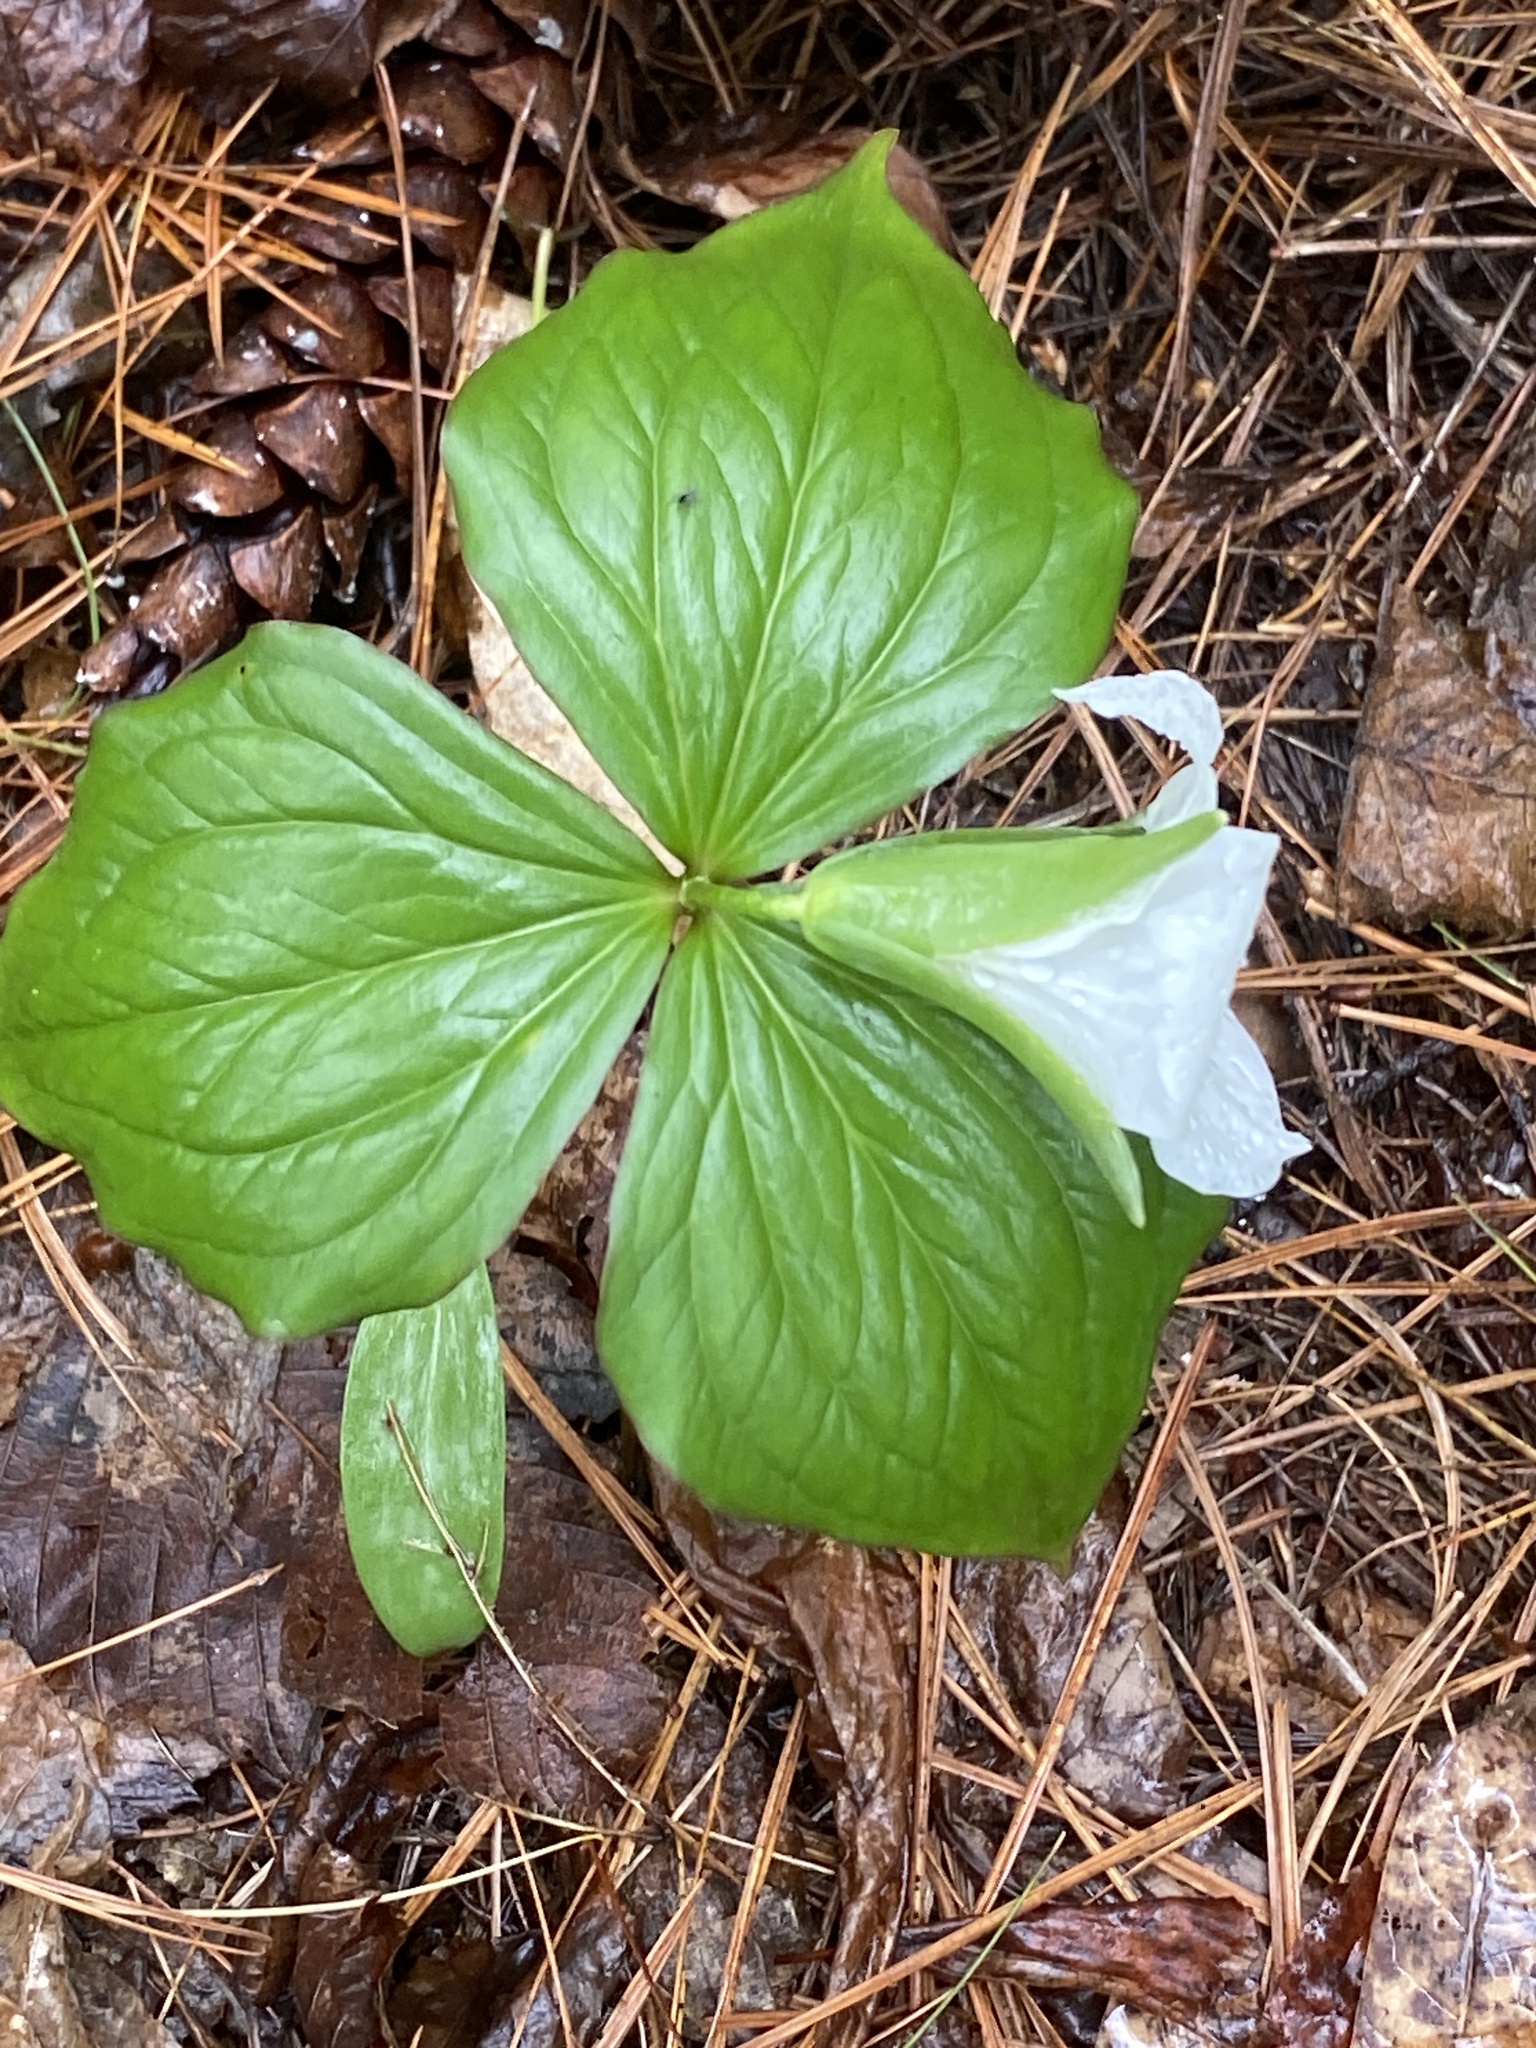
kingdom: Plantae
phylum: Tracheophyta
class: Liliopsida
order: Liliales
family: Melanthiaceae
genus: Trillium
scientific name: Trillium grandiflorum
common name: Great white trillium
